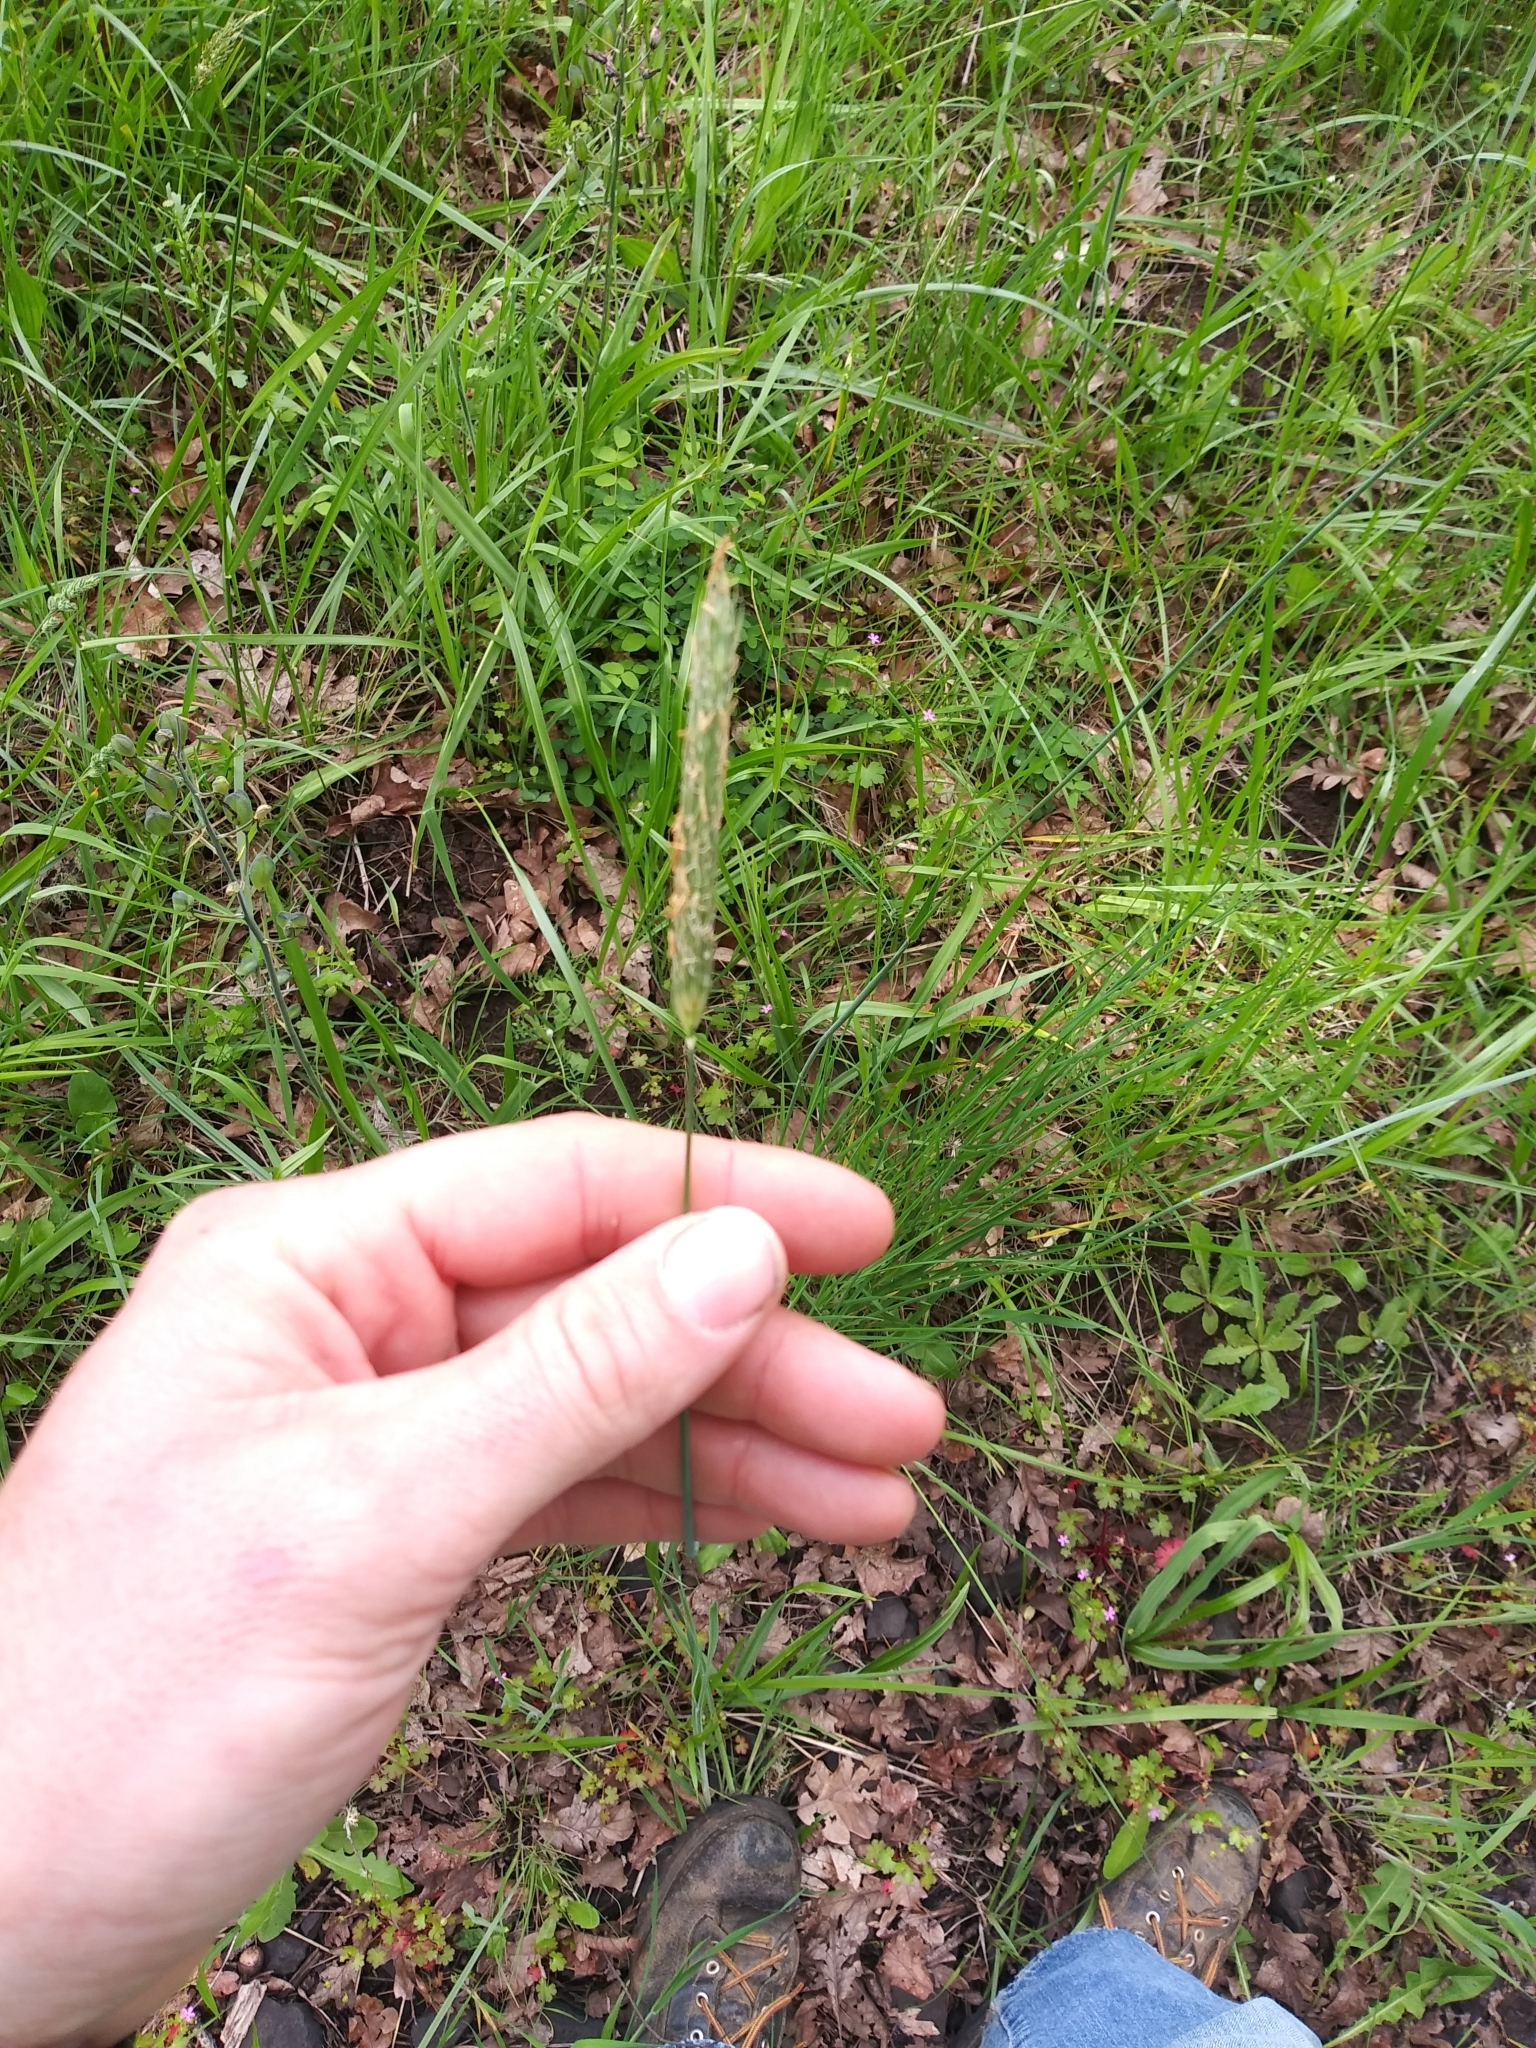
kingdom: Plantae
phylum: Tracheophyta
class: Liliopsida
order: Poales
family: Poaceae
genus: Alopecurus
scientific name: Alopecurus pratensis
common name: Meadow foxtail
